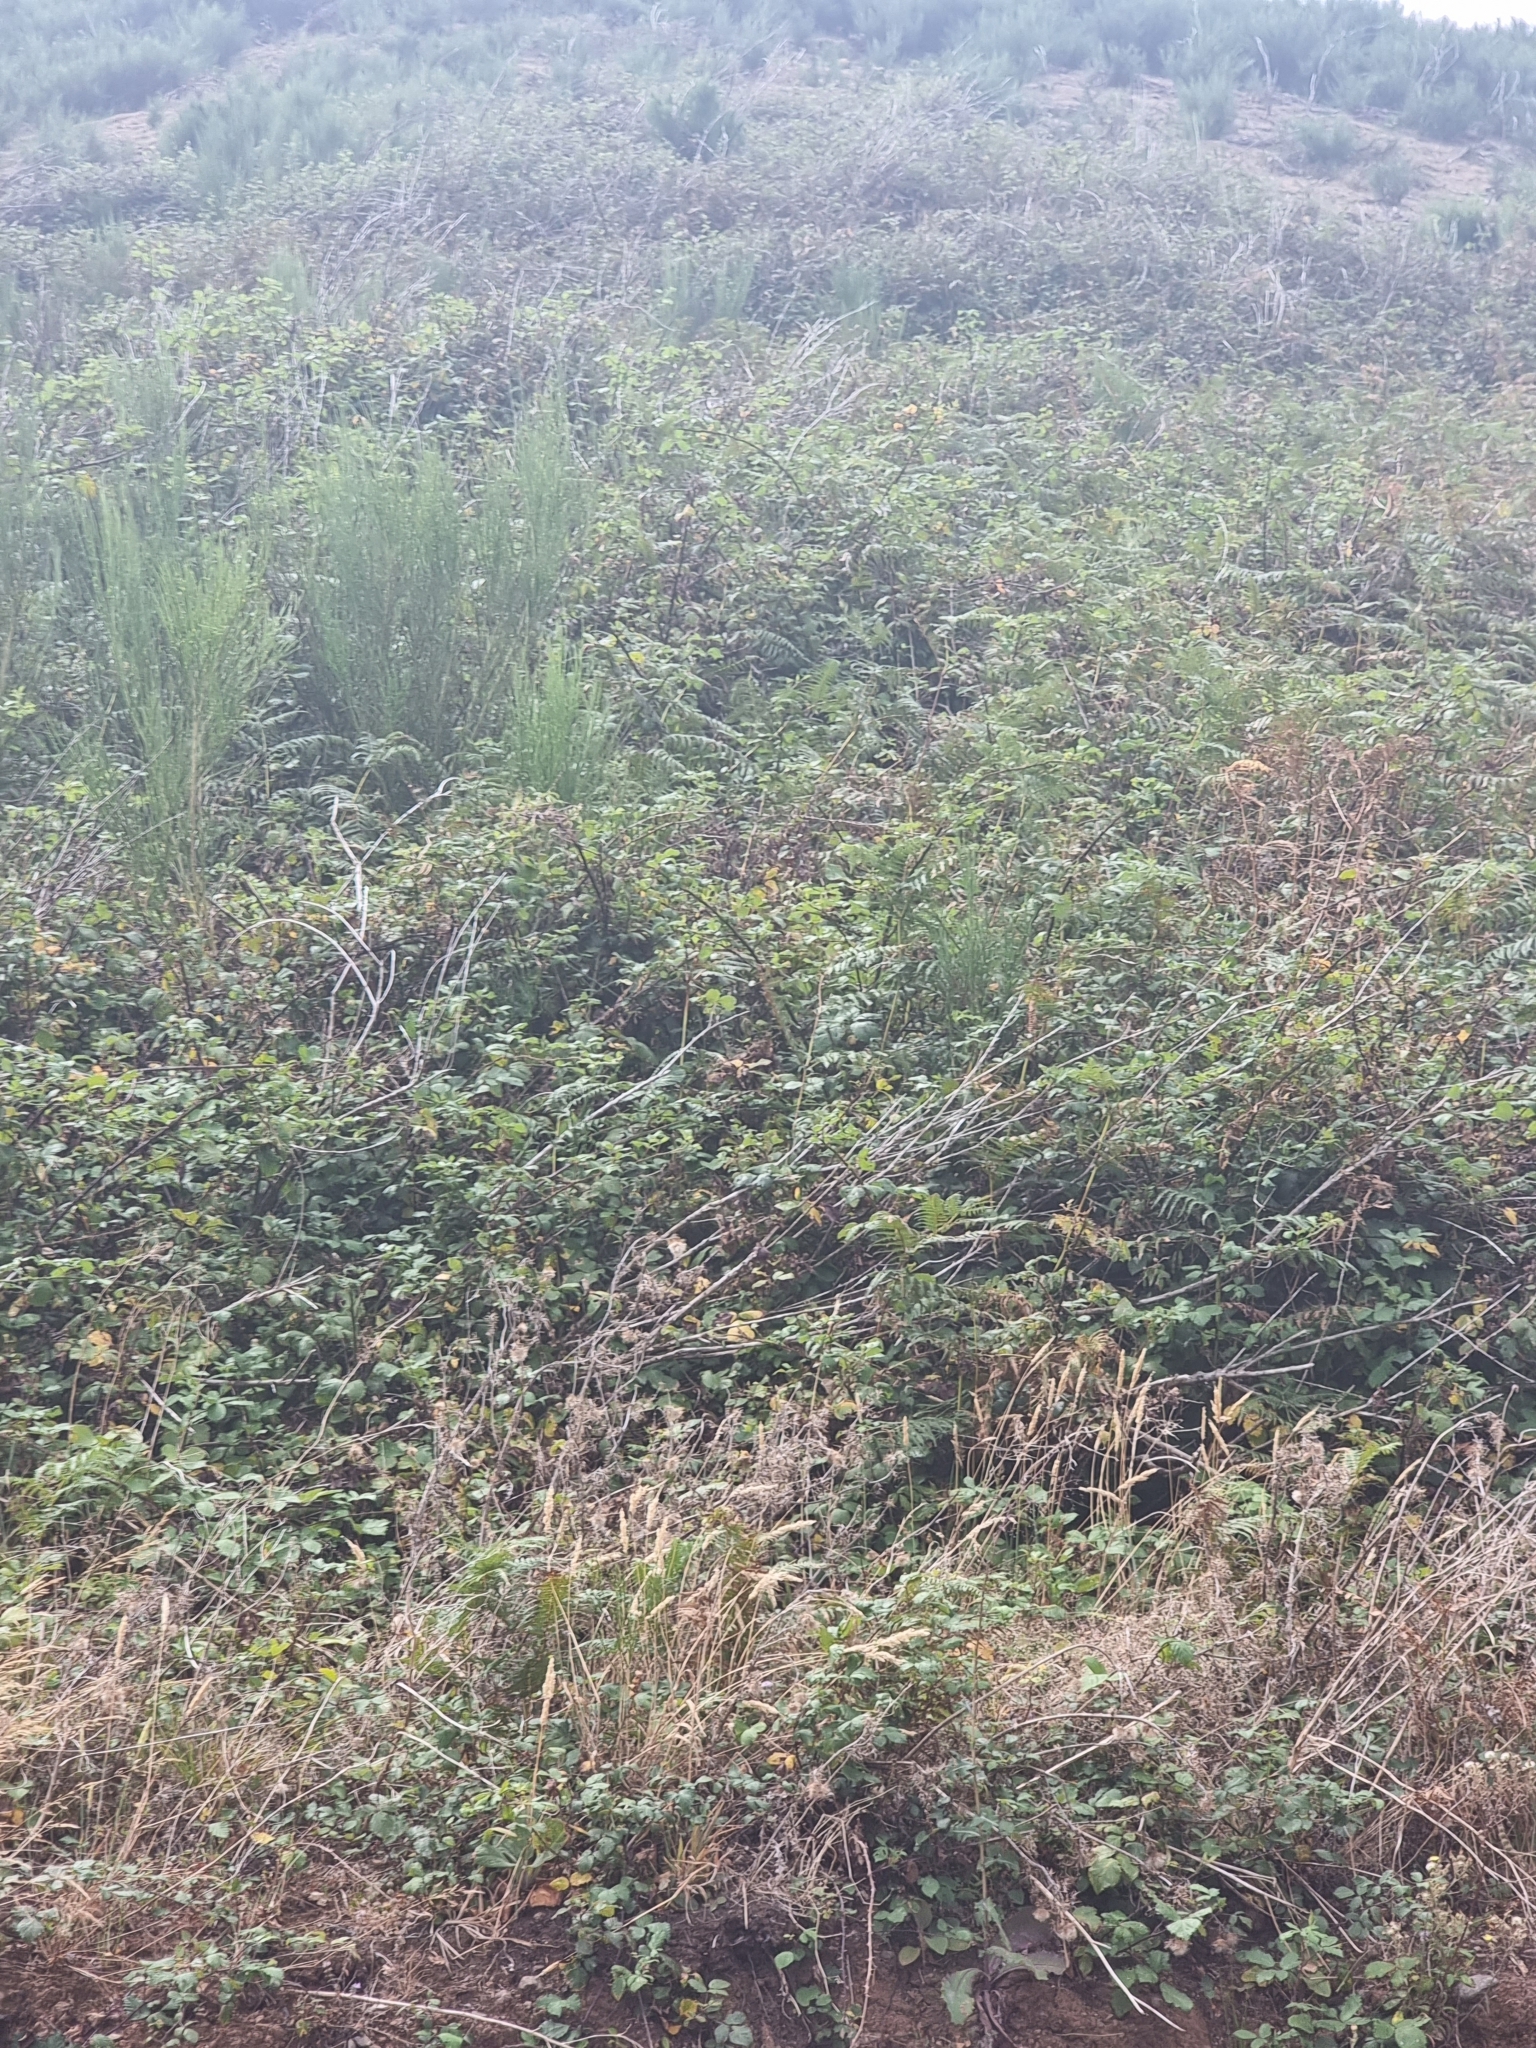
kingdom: Plantae
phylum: Tracheophyta
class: Polypodiopsida
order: Polypodiales
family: Dennstaedtiaceae
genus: Pteridium
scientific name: Pteridium aquilinum
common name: Bracken
